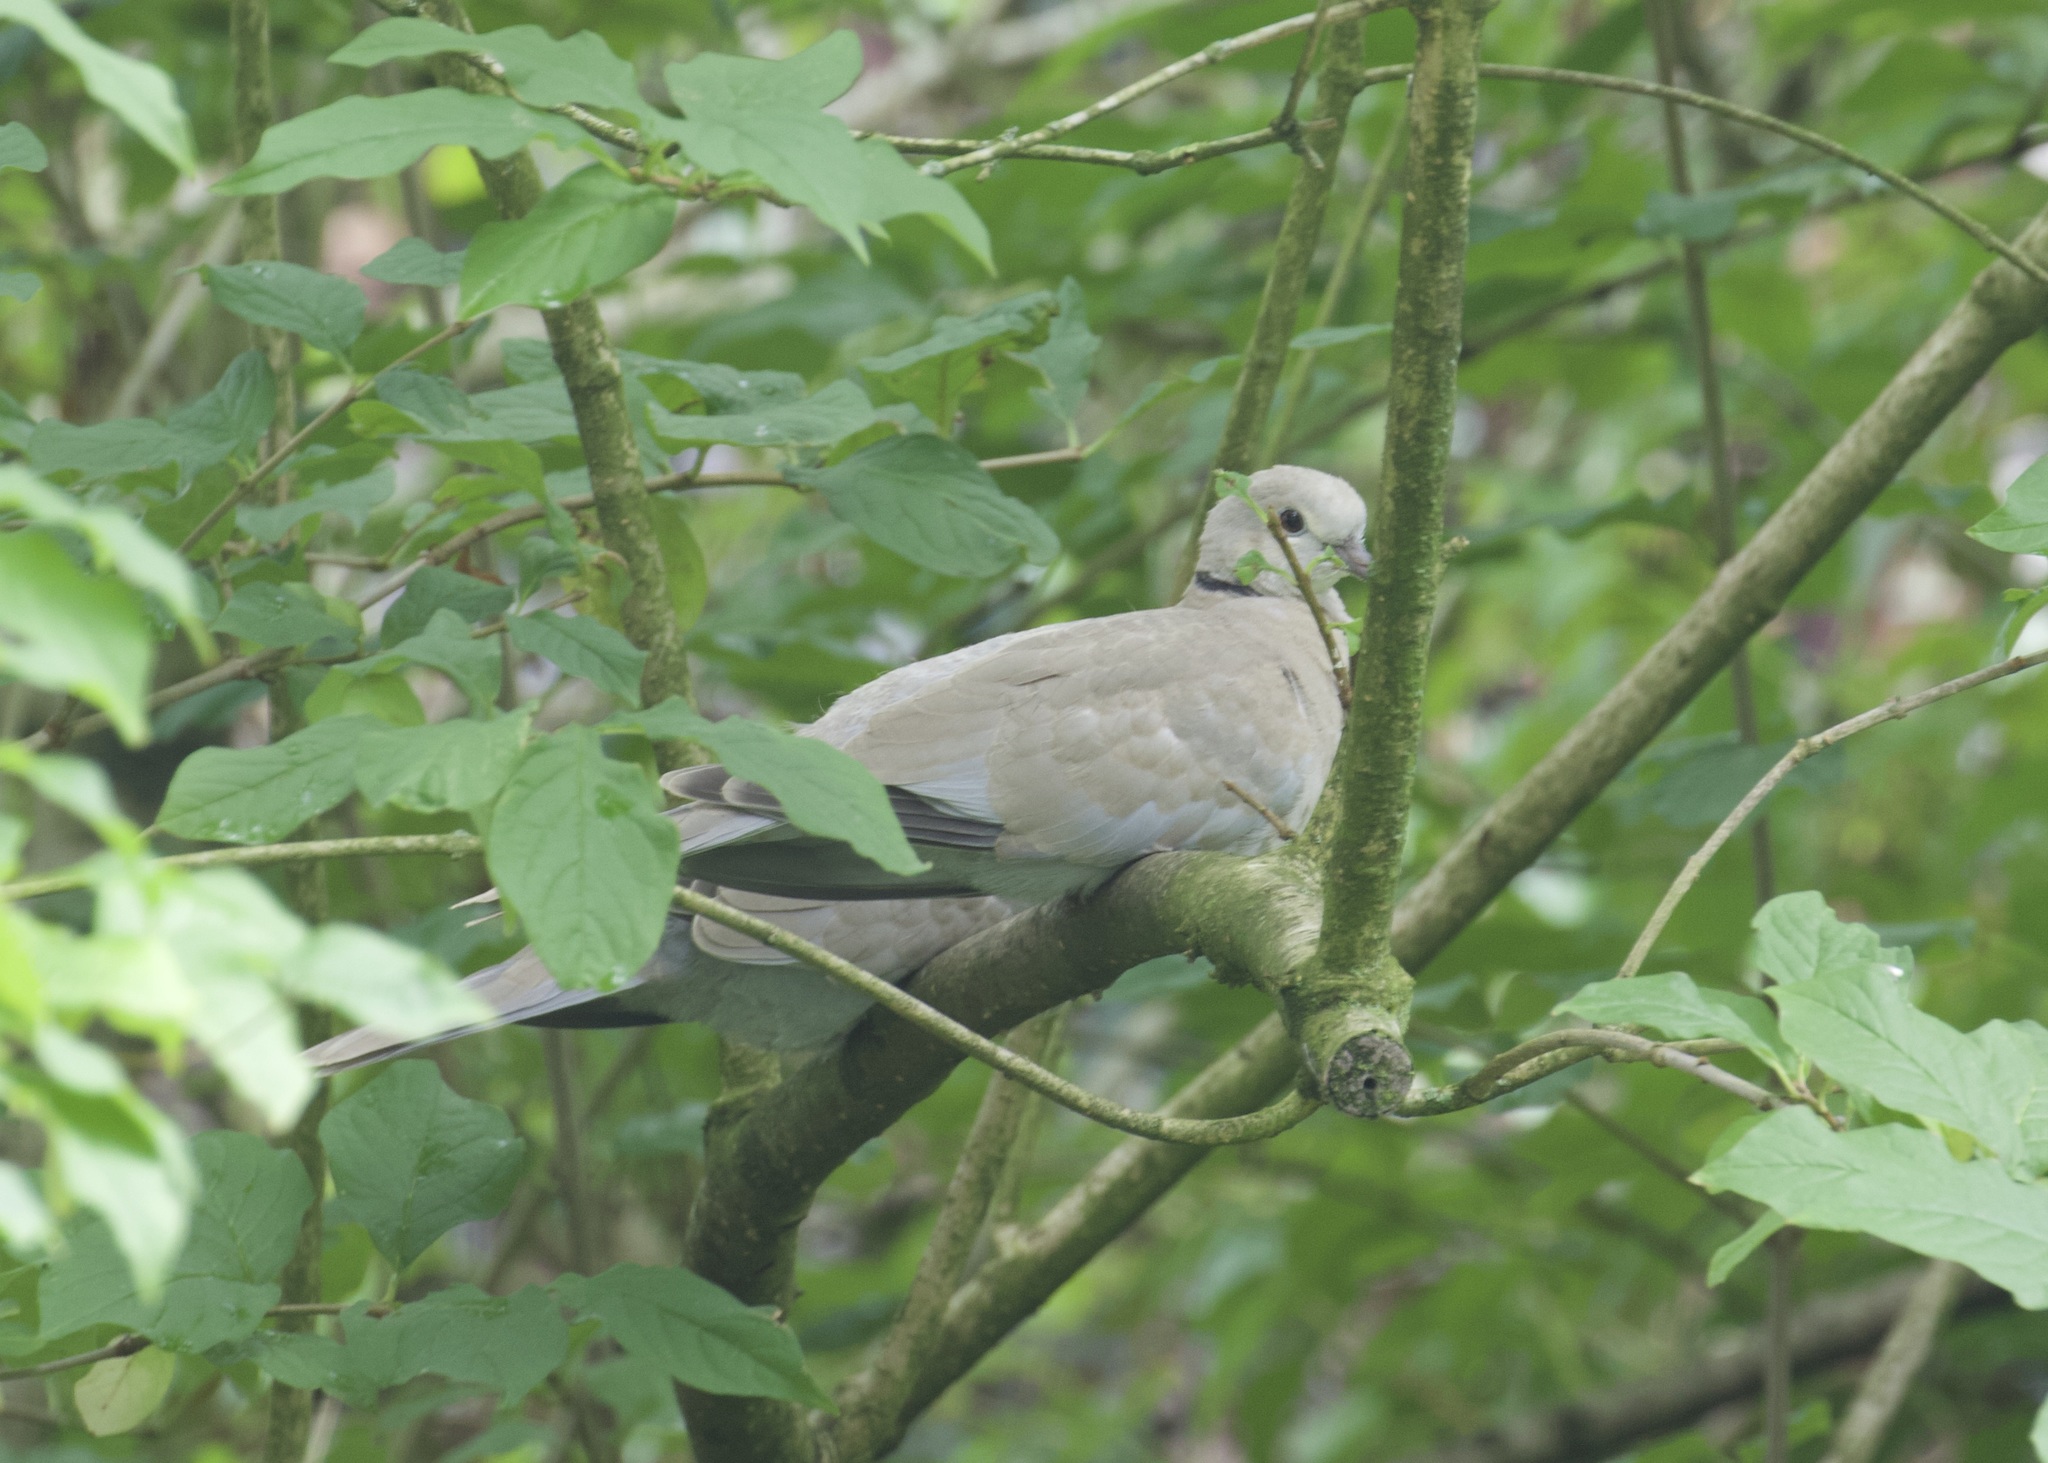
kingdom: Animalia
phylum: Chordata
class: Aves
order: Columbiformes
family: Columbidae
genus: Streptopelia
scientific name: Streptopelia decaocto
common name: Eurasian collared dove
